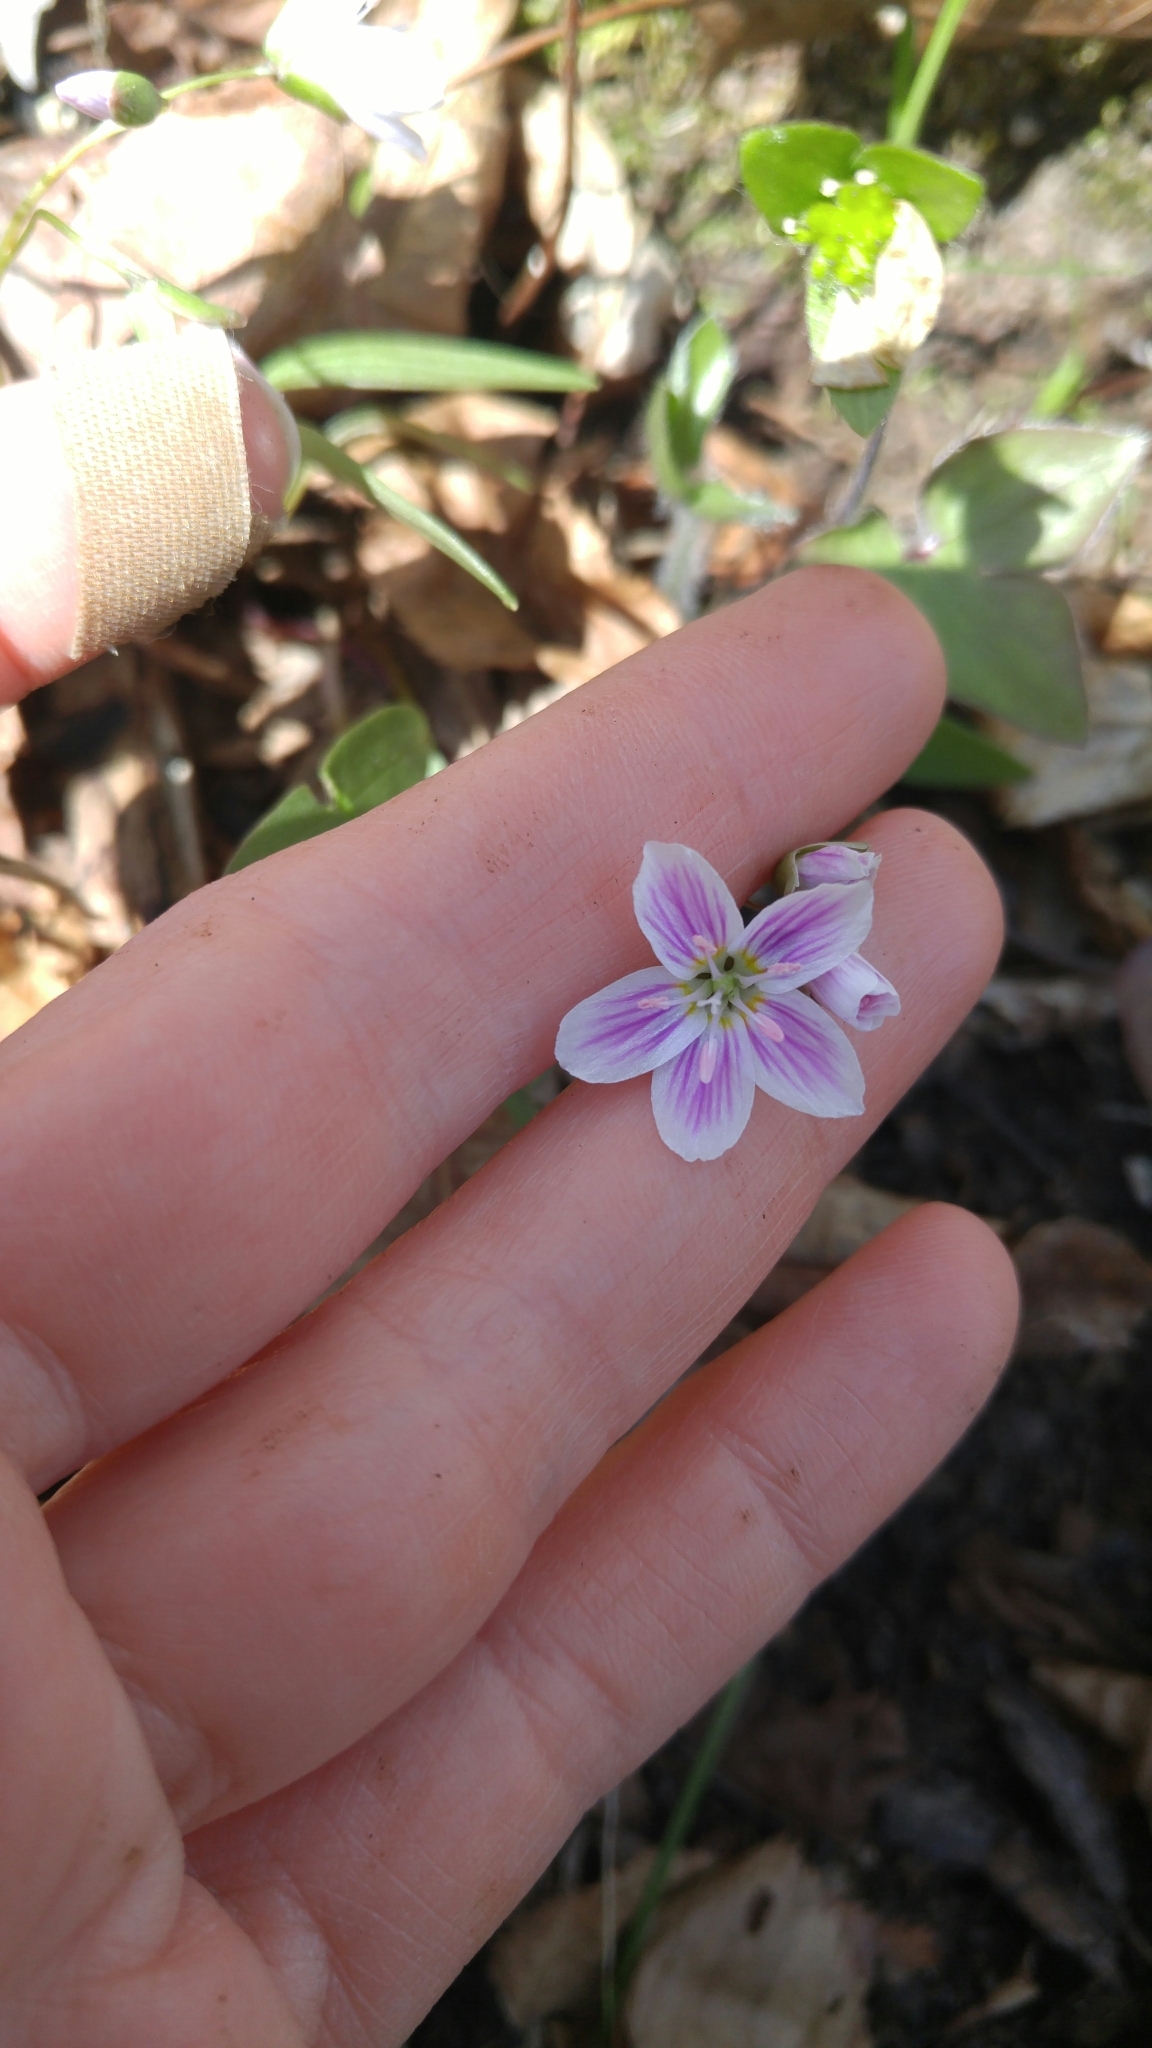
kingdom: Plantae
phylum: Tracheophyta
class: Magnoliopsida
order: Caryophyllales
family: Montiaceae
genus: Claytonia
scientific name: Claytonia caroliniana
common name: Carolina spring beauty
